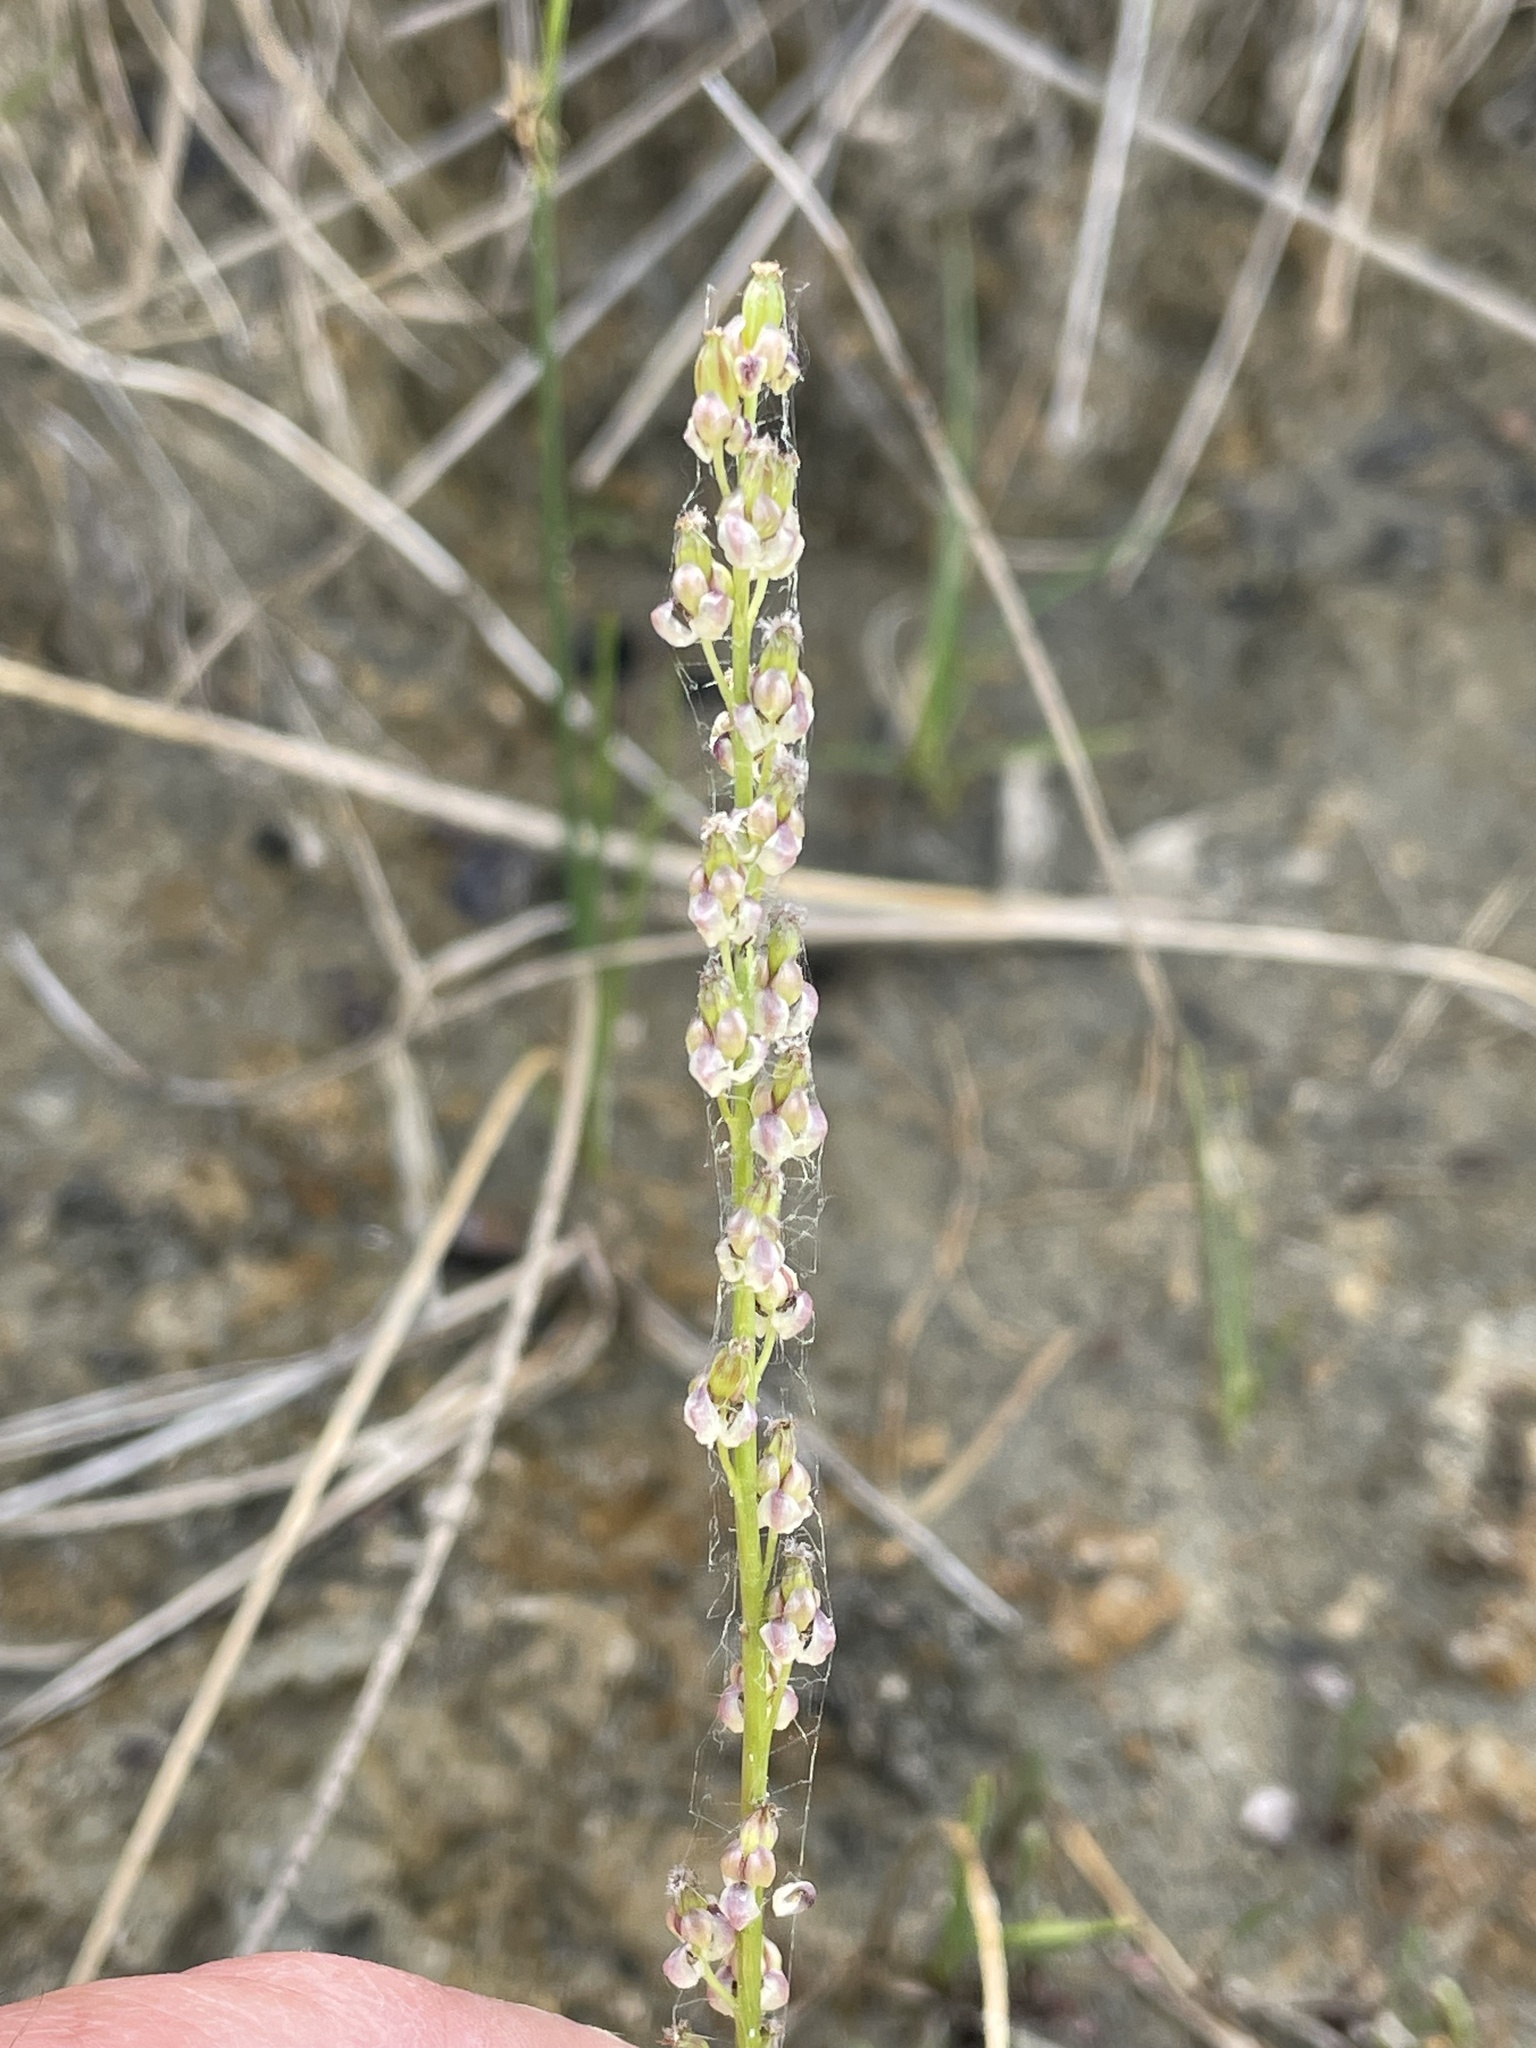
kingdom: Plantae
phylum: Tracheophyta
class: Liliopsida
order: Alismatales
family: Juncaginaceae
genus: Triglochin
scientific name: Triglochin maritima
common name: Sea arrowgrass
